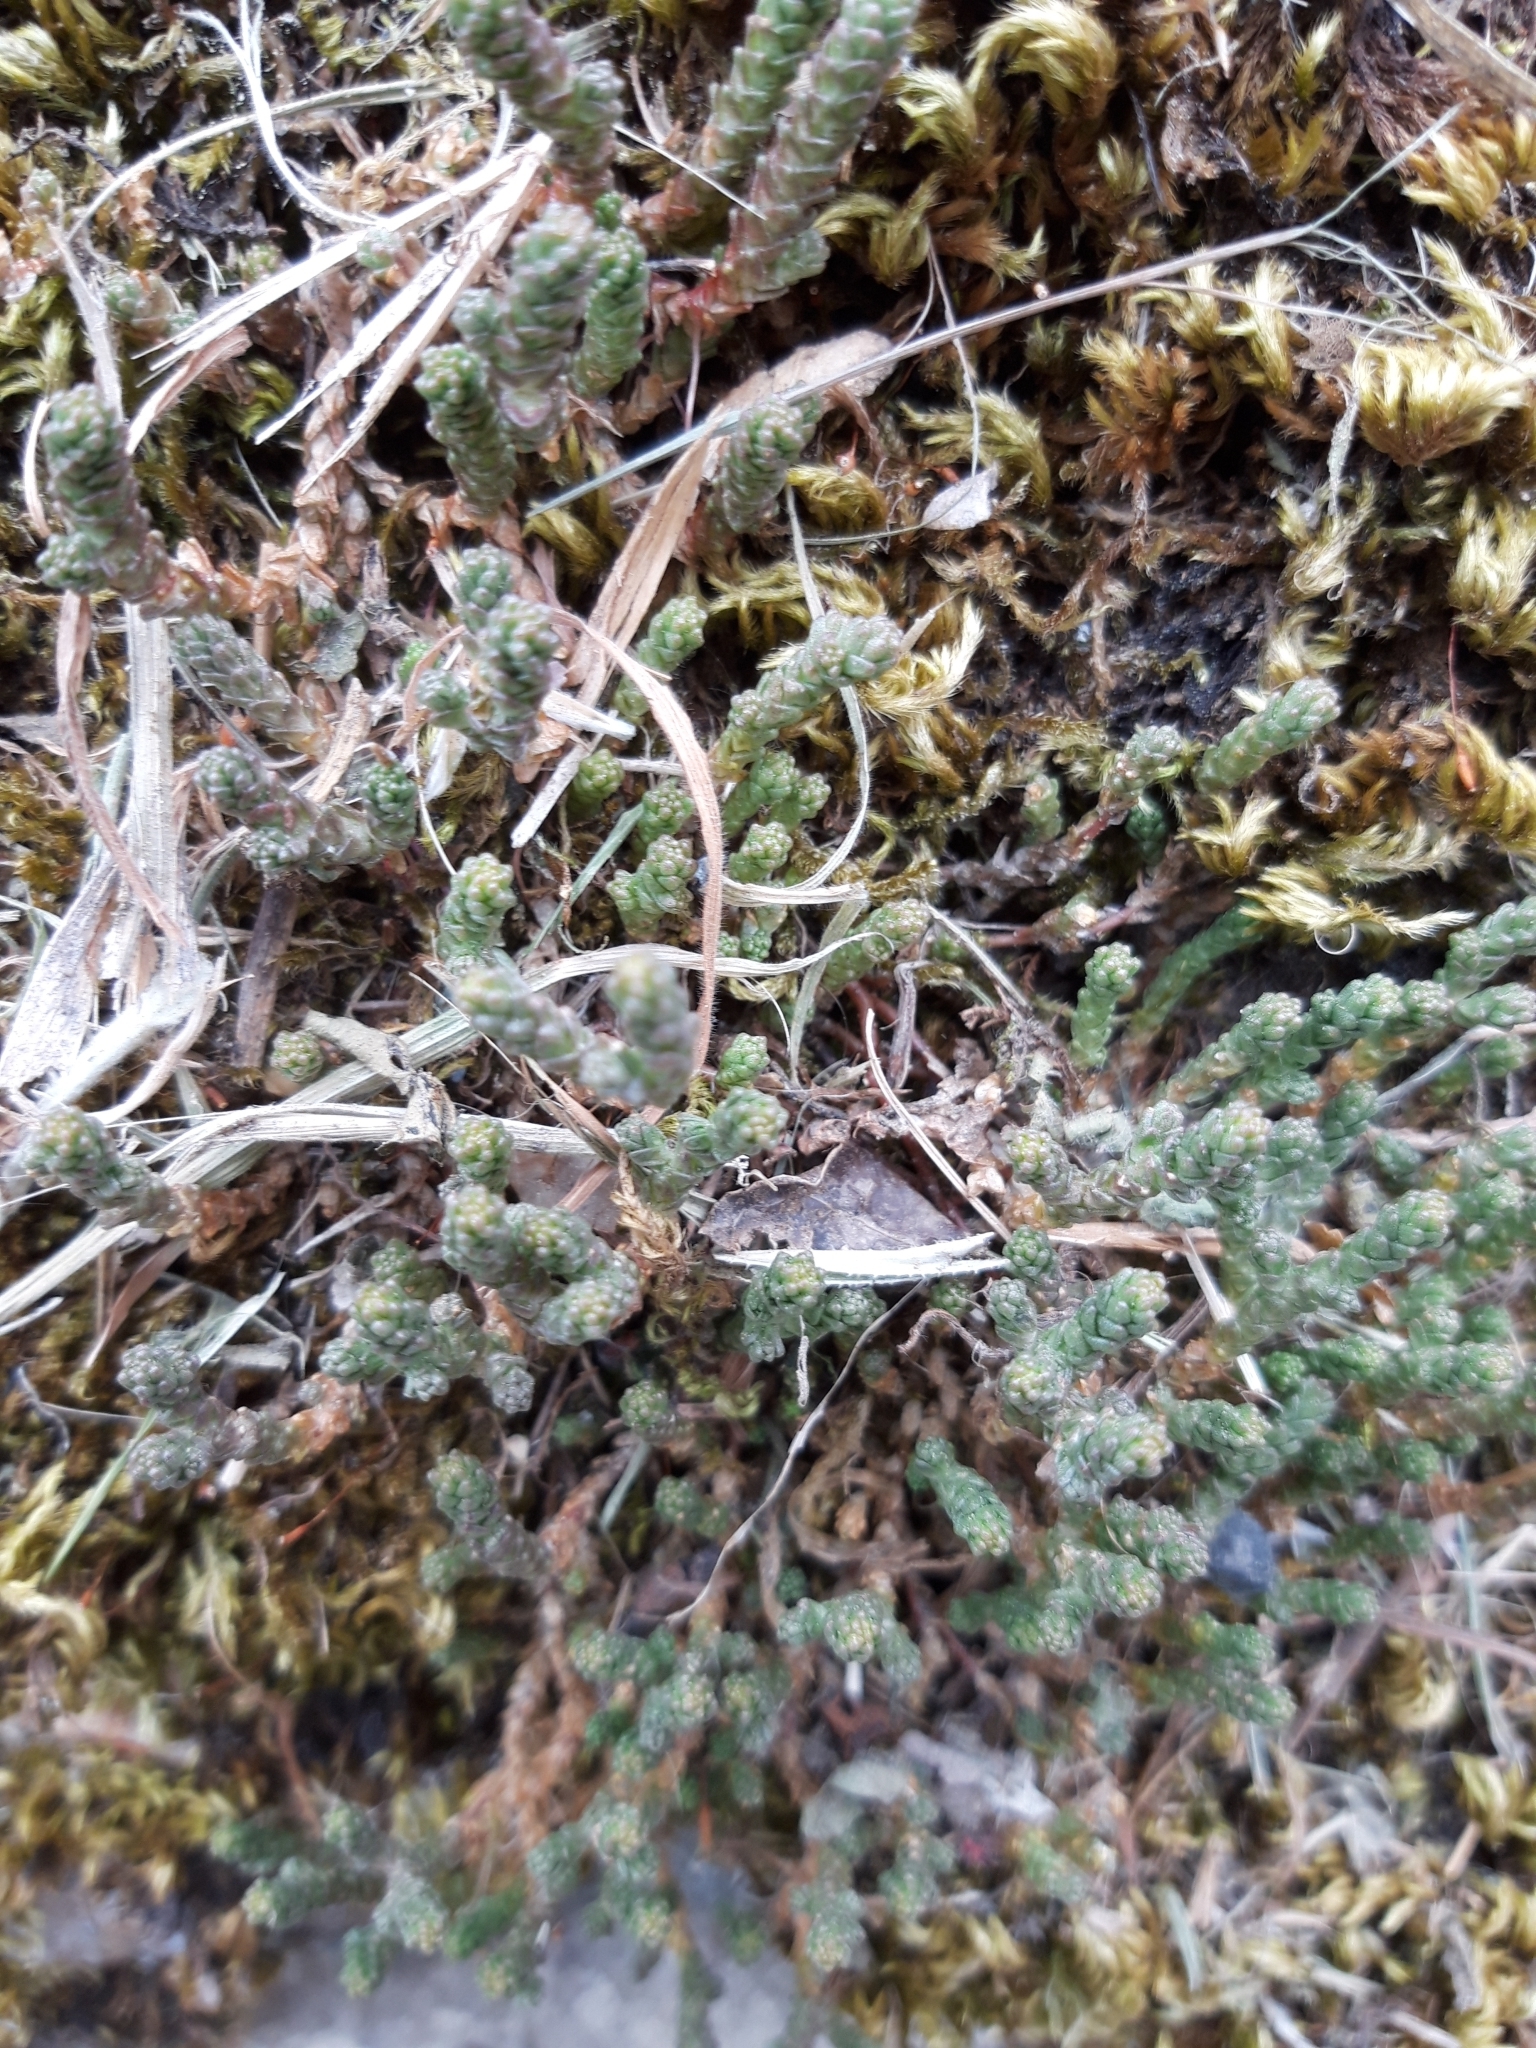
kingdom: Plantae
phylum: Tracheophyta
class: Magnoliopsida
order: Saxifragales
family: Crassulaceae
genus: Sedum
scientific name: Sedum acre
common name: Biting stonecrop
